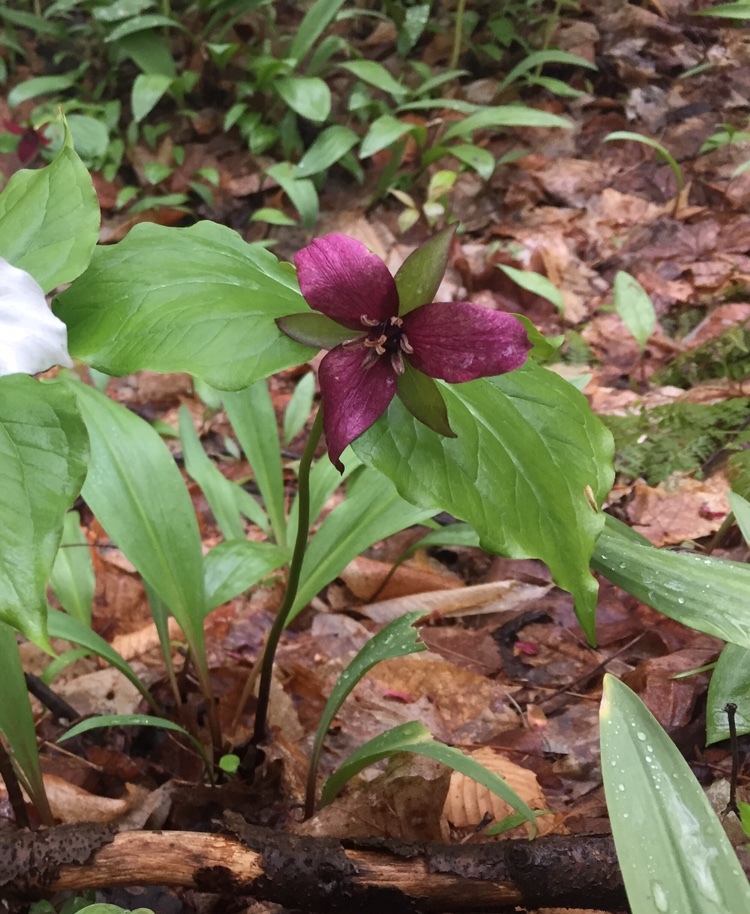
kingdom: Plantae
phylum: Tracheophyta
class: Liliopsida
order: Liliales
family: Melanthiaceae
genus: Trillium
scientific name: Trillium erectum
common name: Purple trillium
